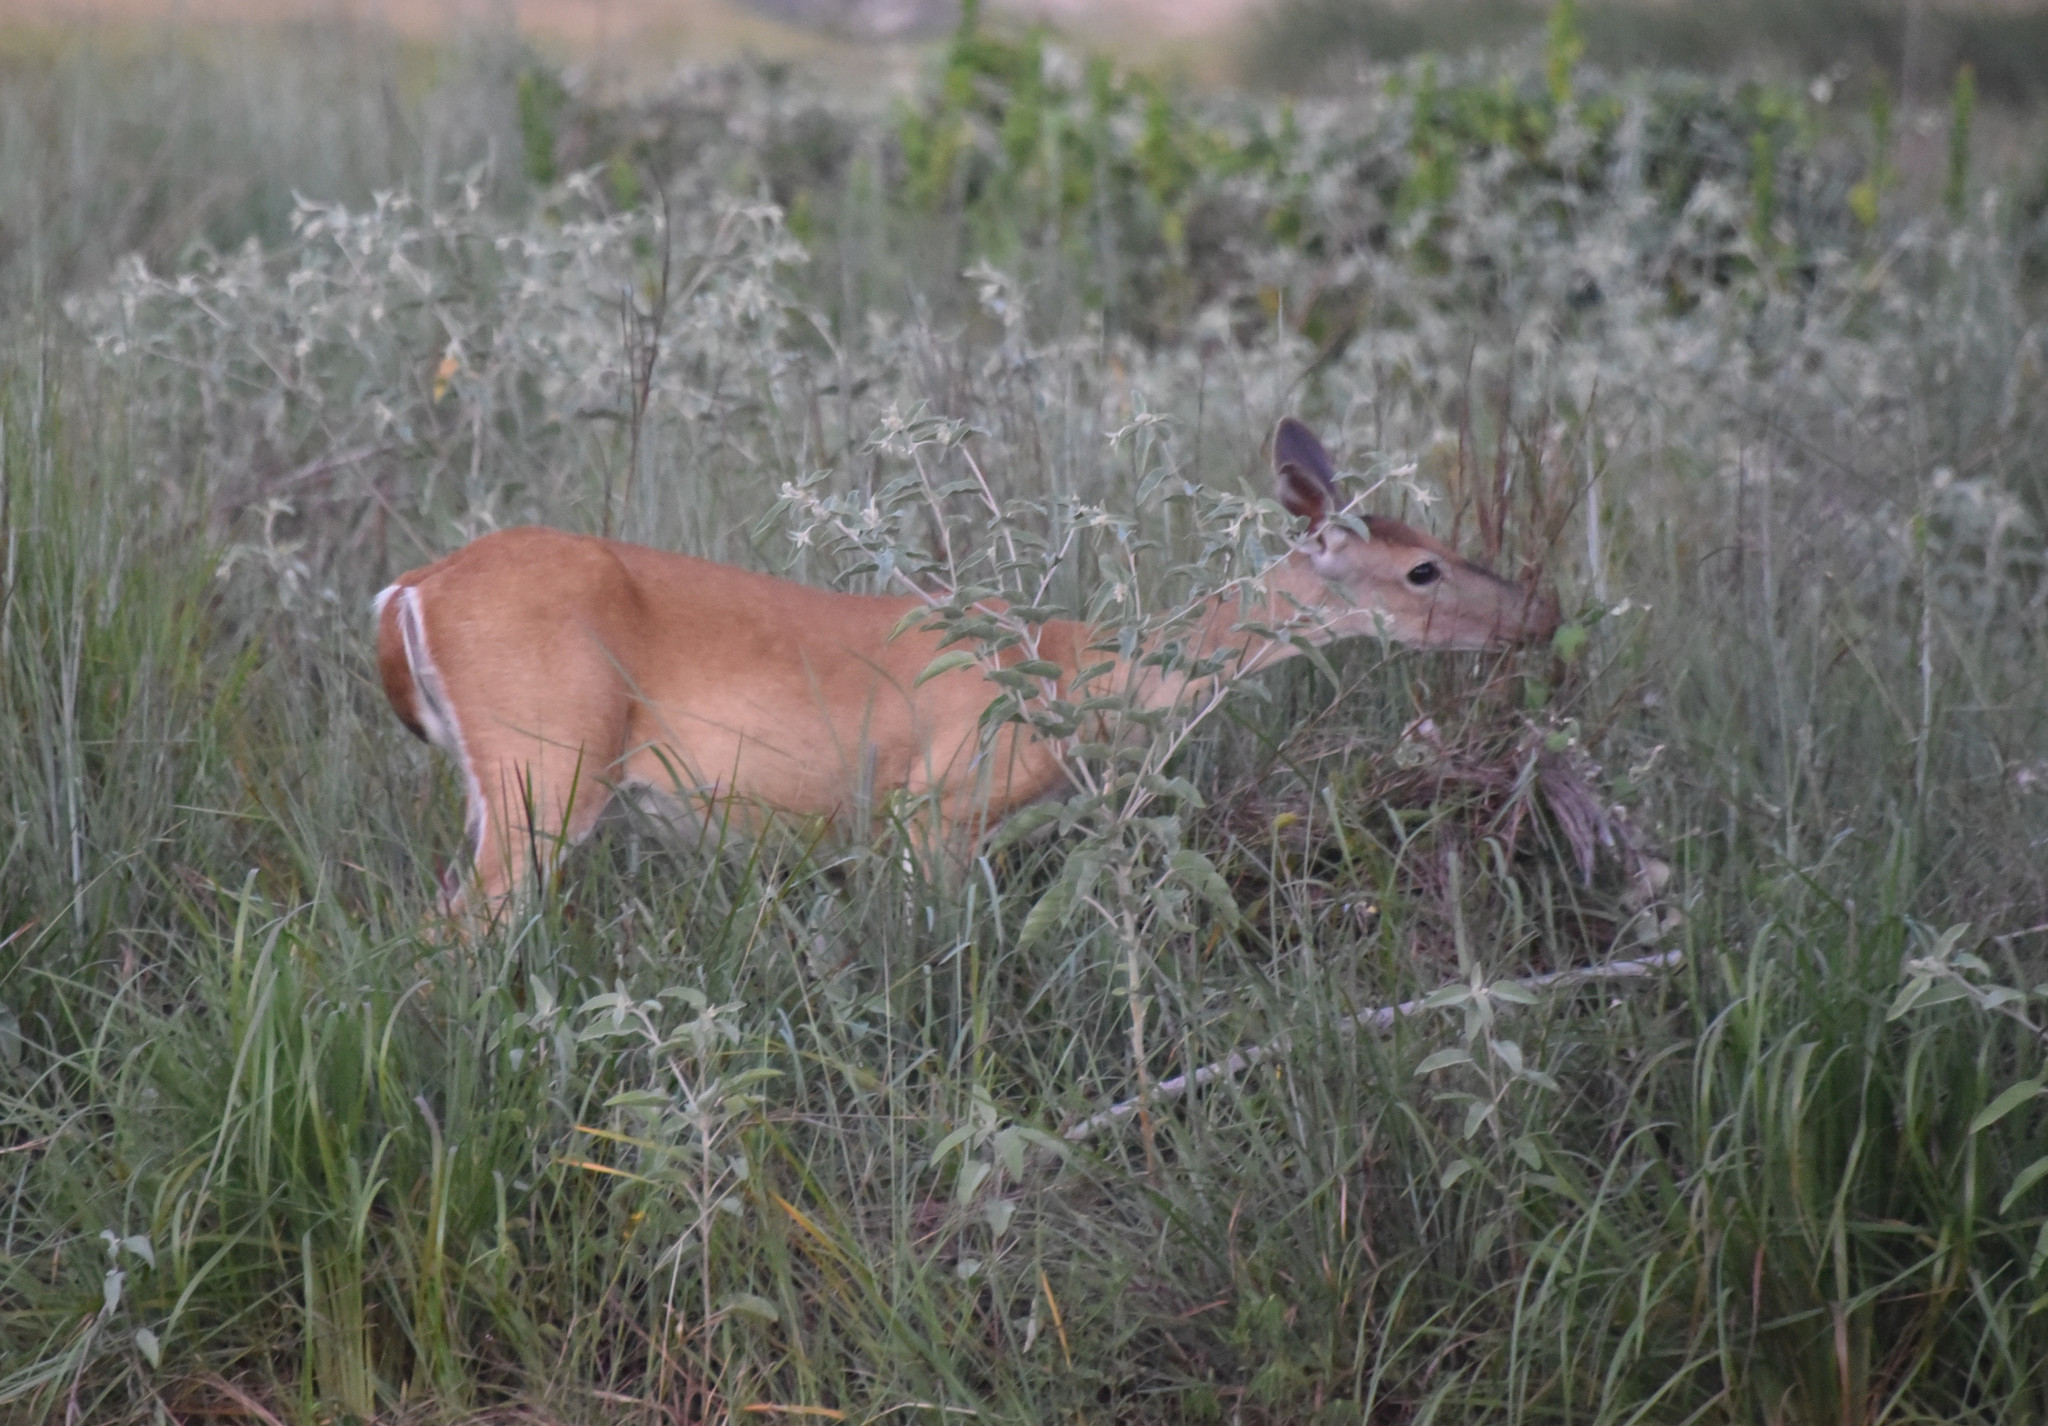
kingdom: Animalia
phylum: Chordata
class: Mammalia
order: Artiodactyla
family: Cervidae
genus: Odocoileus
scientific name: Odocoileus virginianus
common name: White-tailed deer
